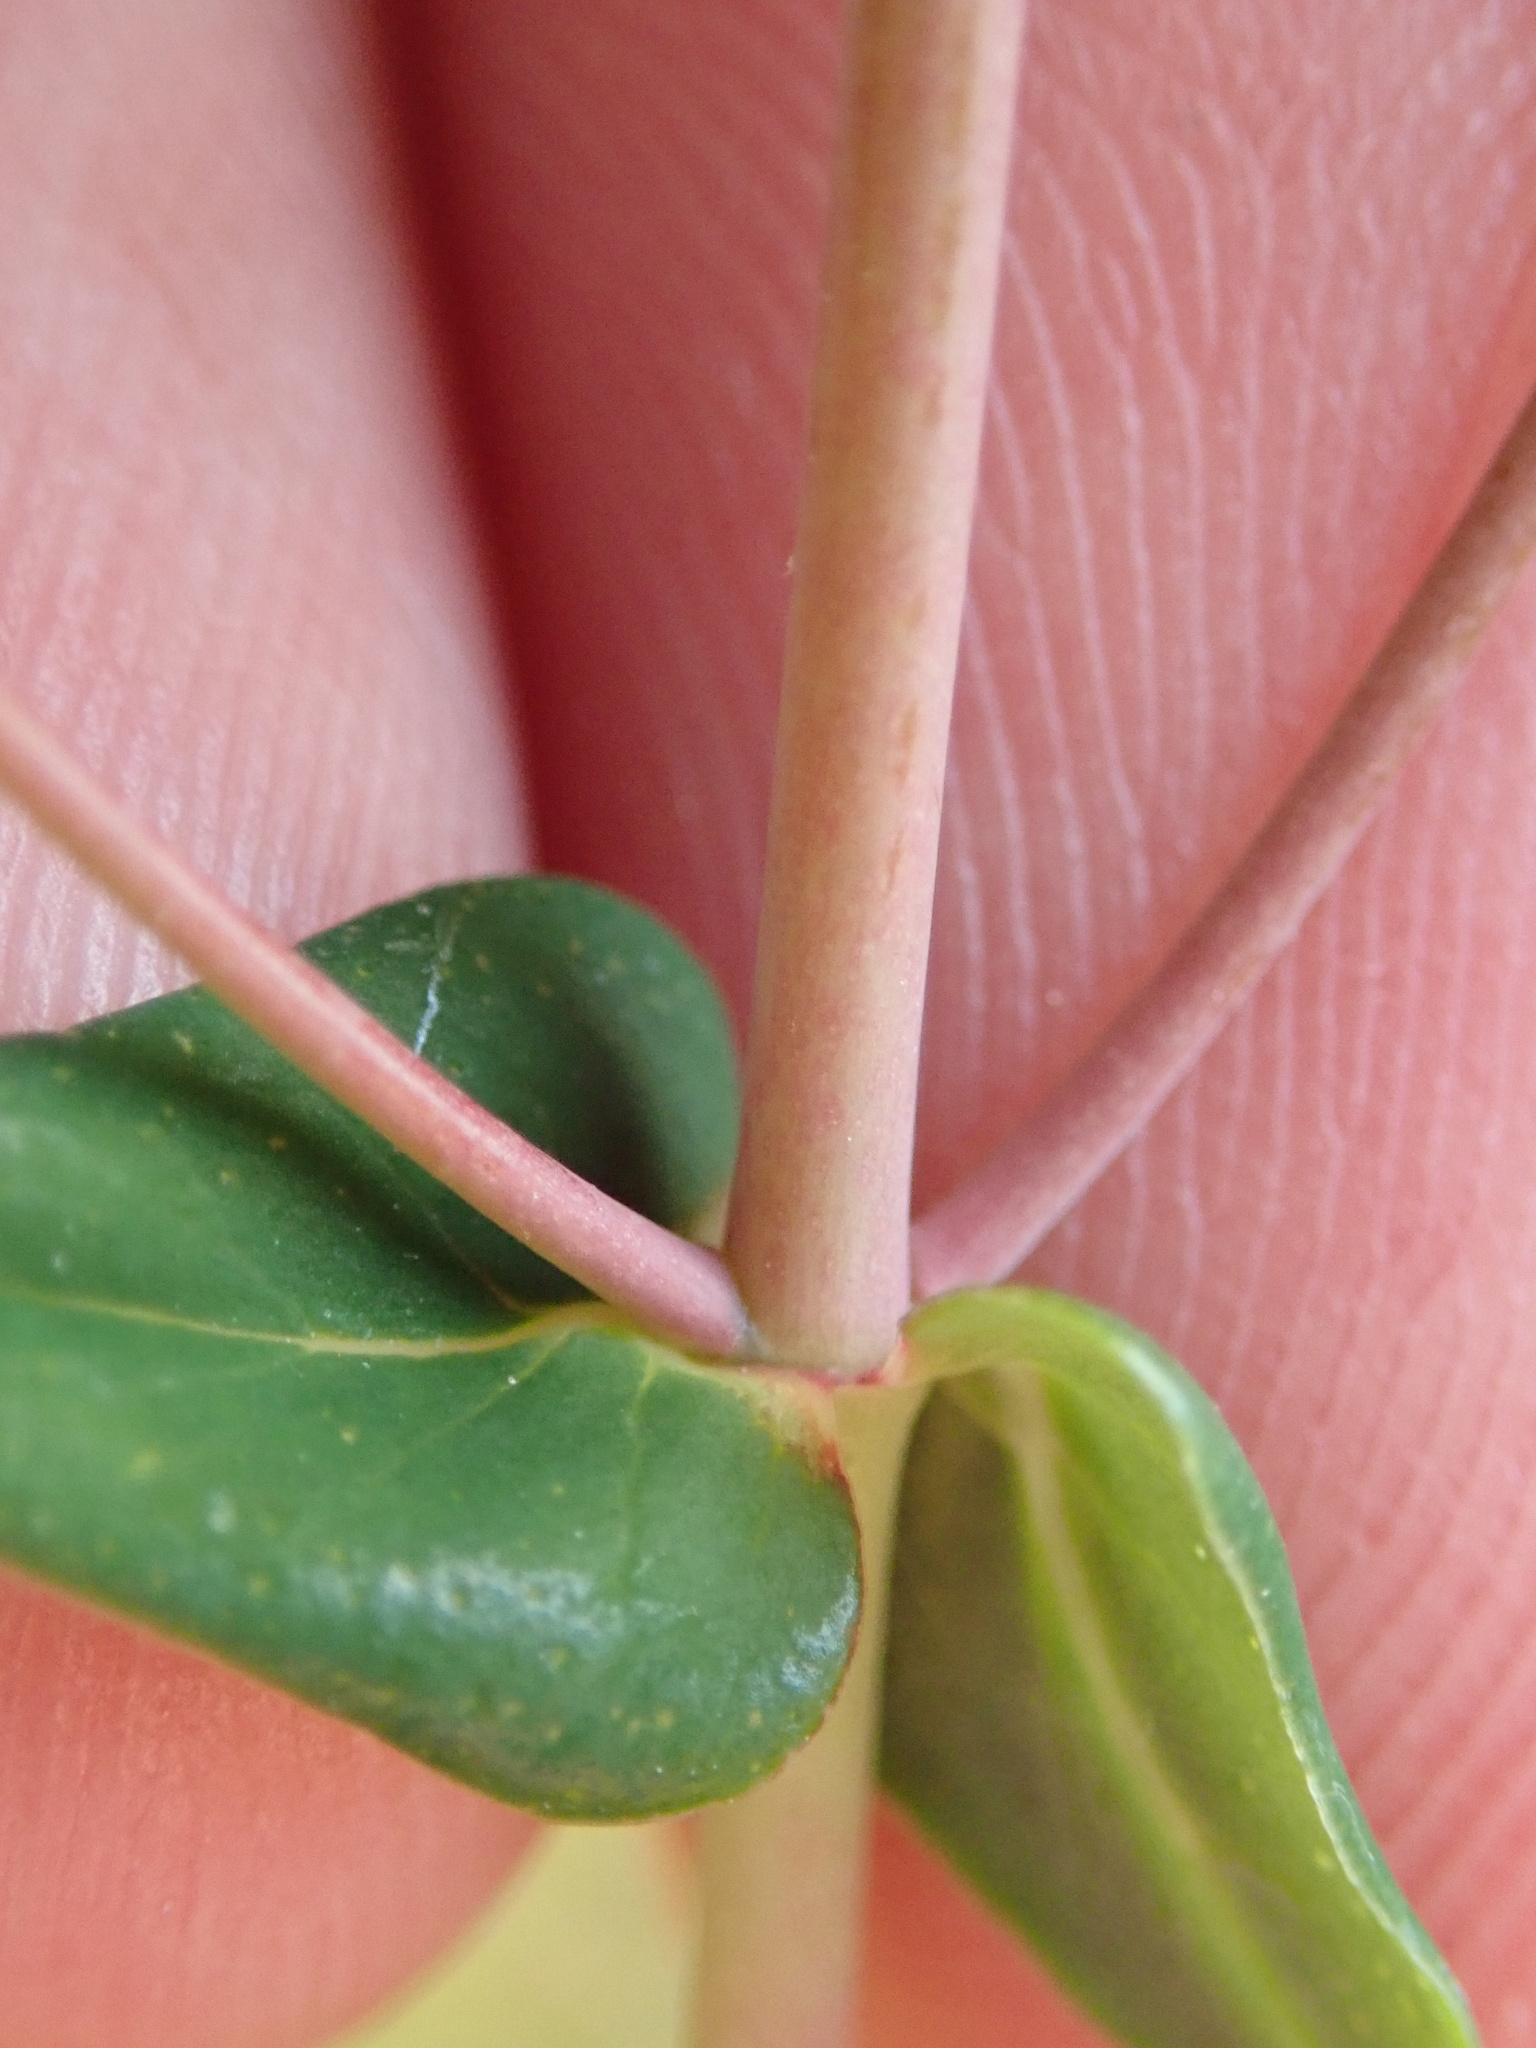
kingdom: Plantae
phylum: Tracheophyta
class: Magnoliopsida
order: Malpighiales
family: Hypericaceae
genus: Hypericum
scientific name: Hypericum pulchrum
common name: Slender st. john's-wort
